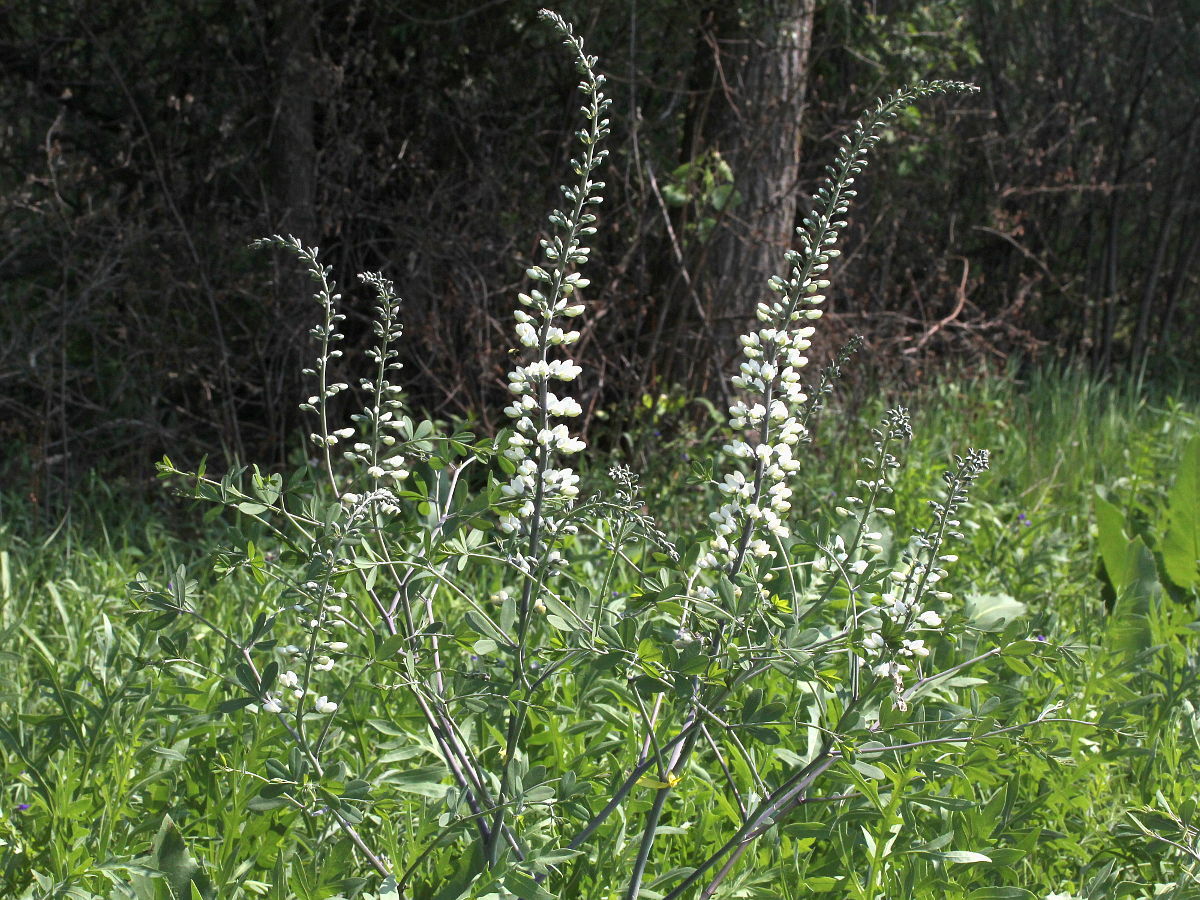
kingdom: Plantae
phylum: Tracheophyta
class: Magnoliopsida
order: Fabales
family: Fabaceae
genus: Baptisia
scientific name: Baptisia alba
